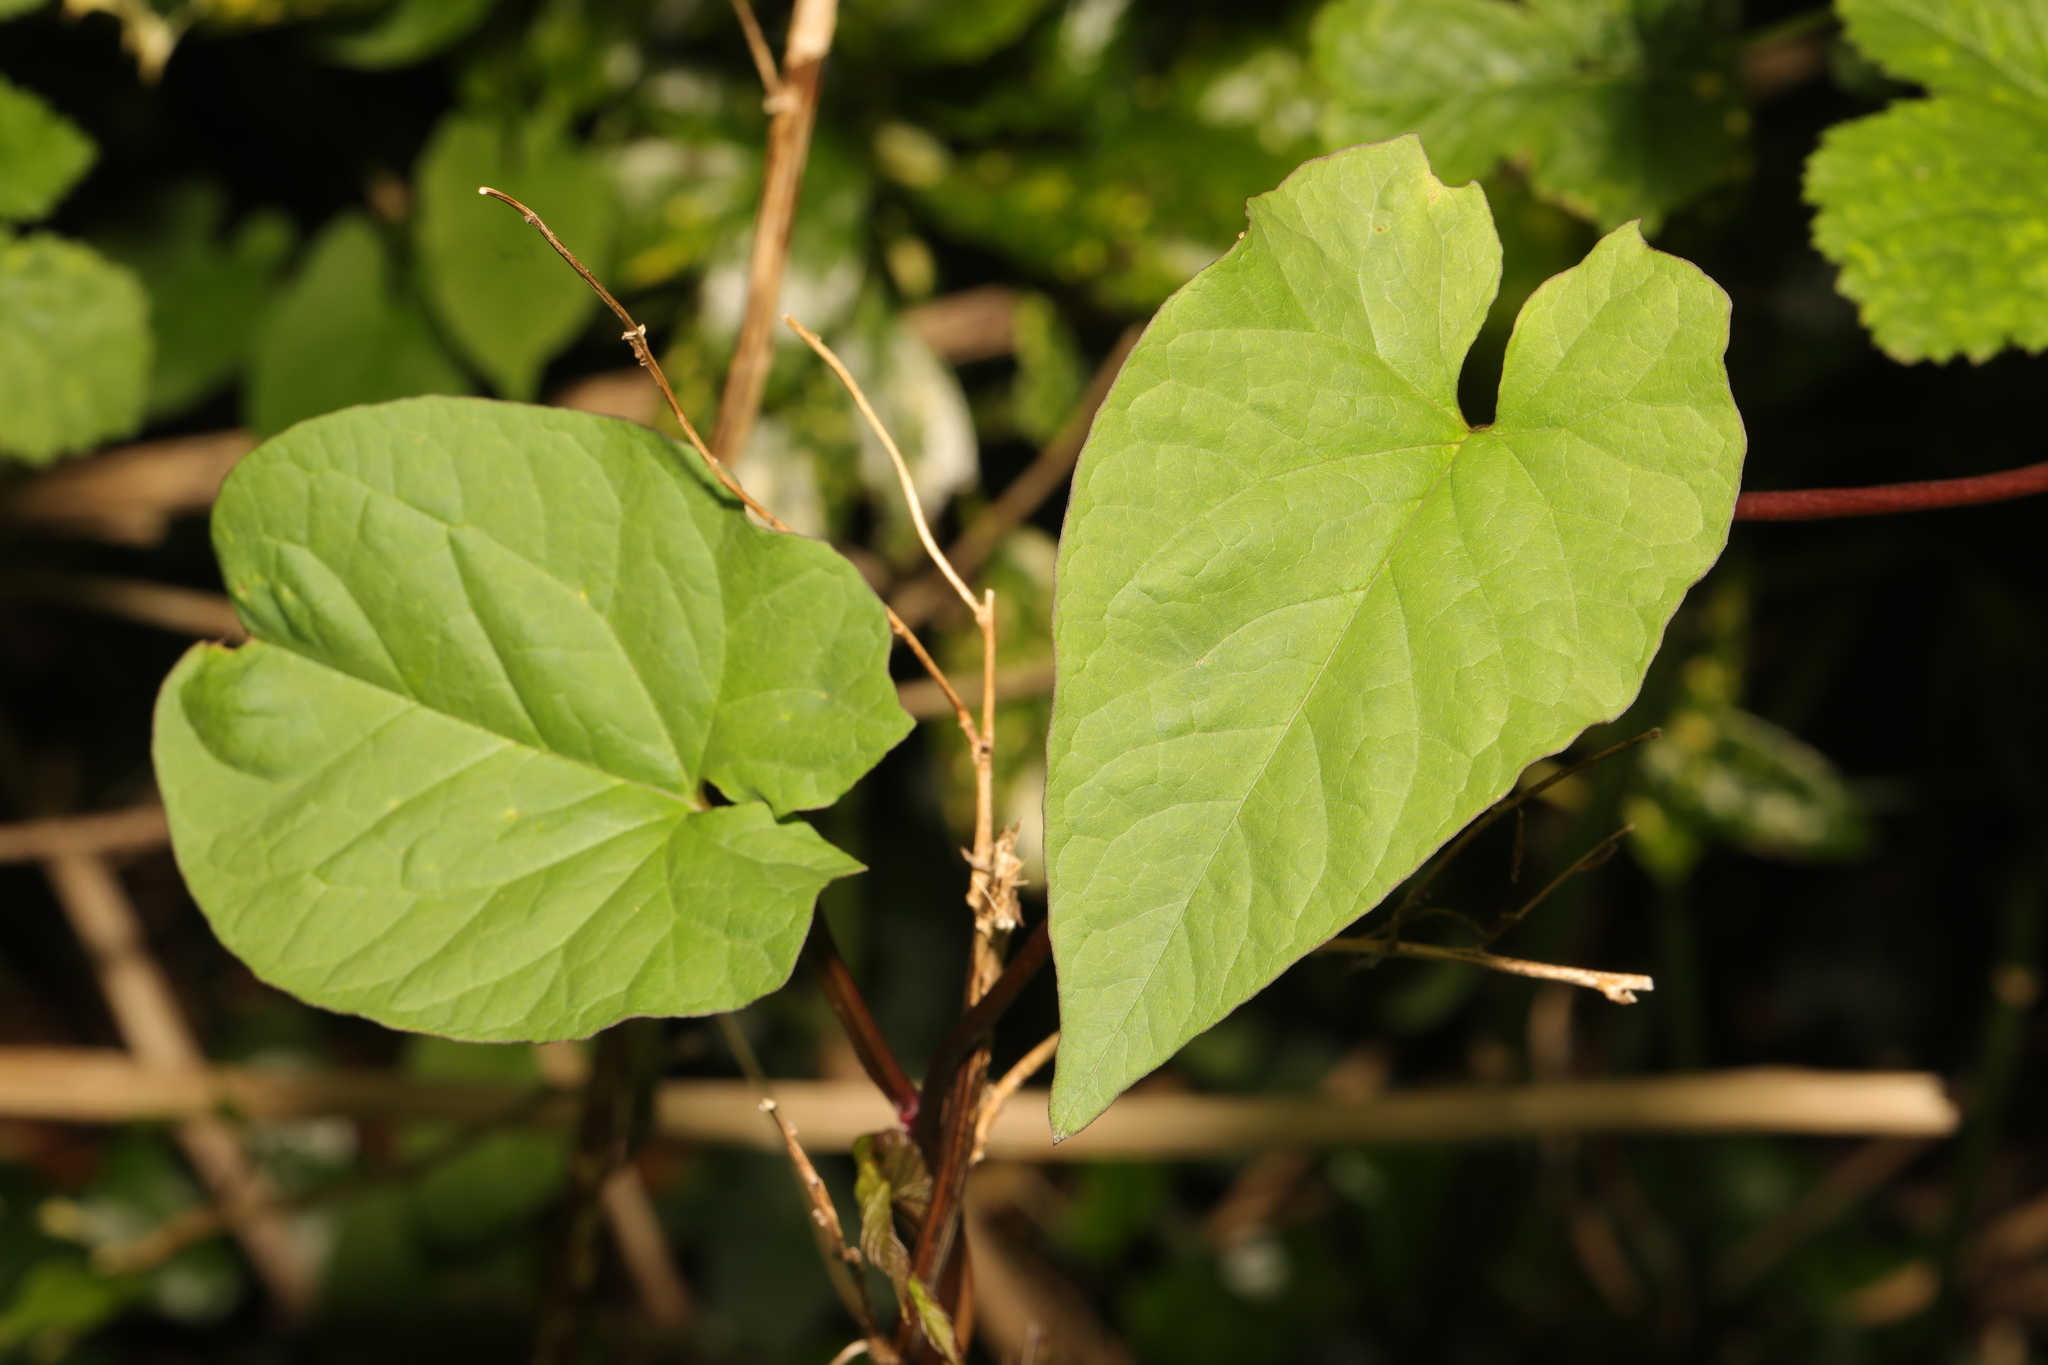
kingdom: Plantae
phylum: Tracheophyta
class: Magnoliopsida
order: Solanales
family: Convolvulaceae
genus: Calystegia
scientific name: Calystegia
